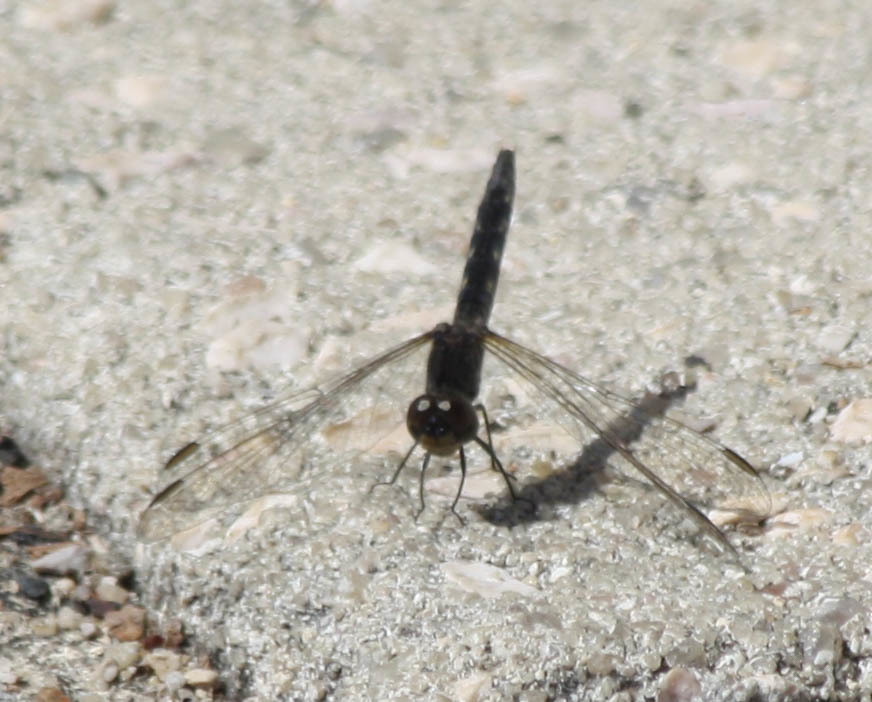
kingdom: Animalia
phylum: Arthropoda
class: Insecta
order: Odonata
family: Libellulidae
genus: Diplacodes
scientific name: Diplacodes lefebvrii
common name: Black percher
